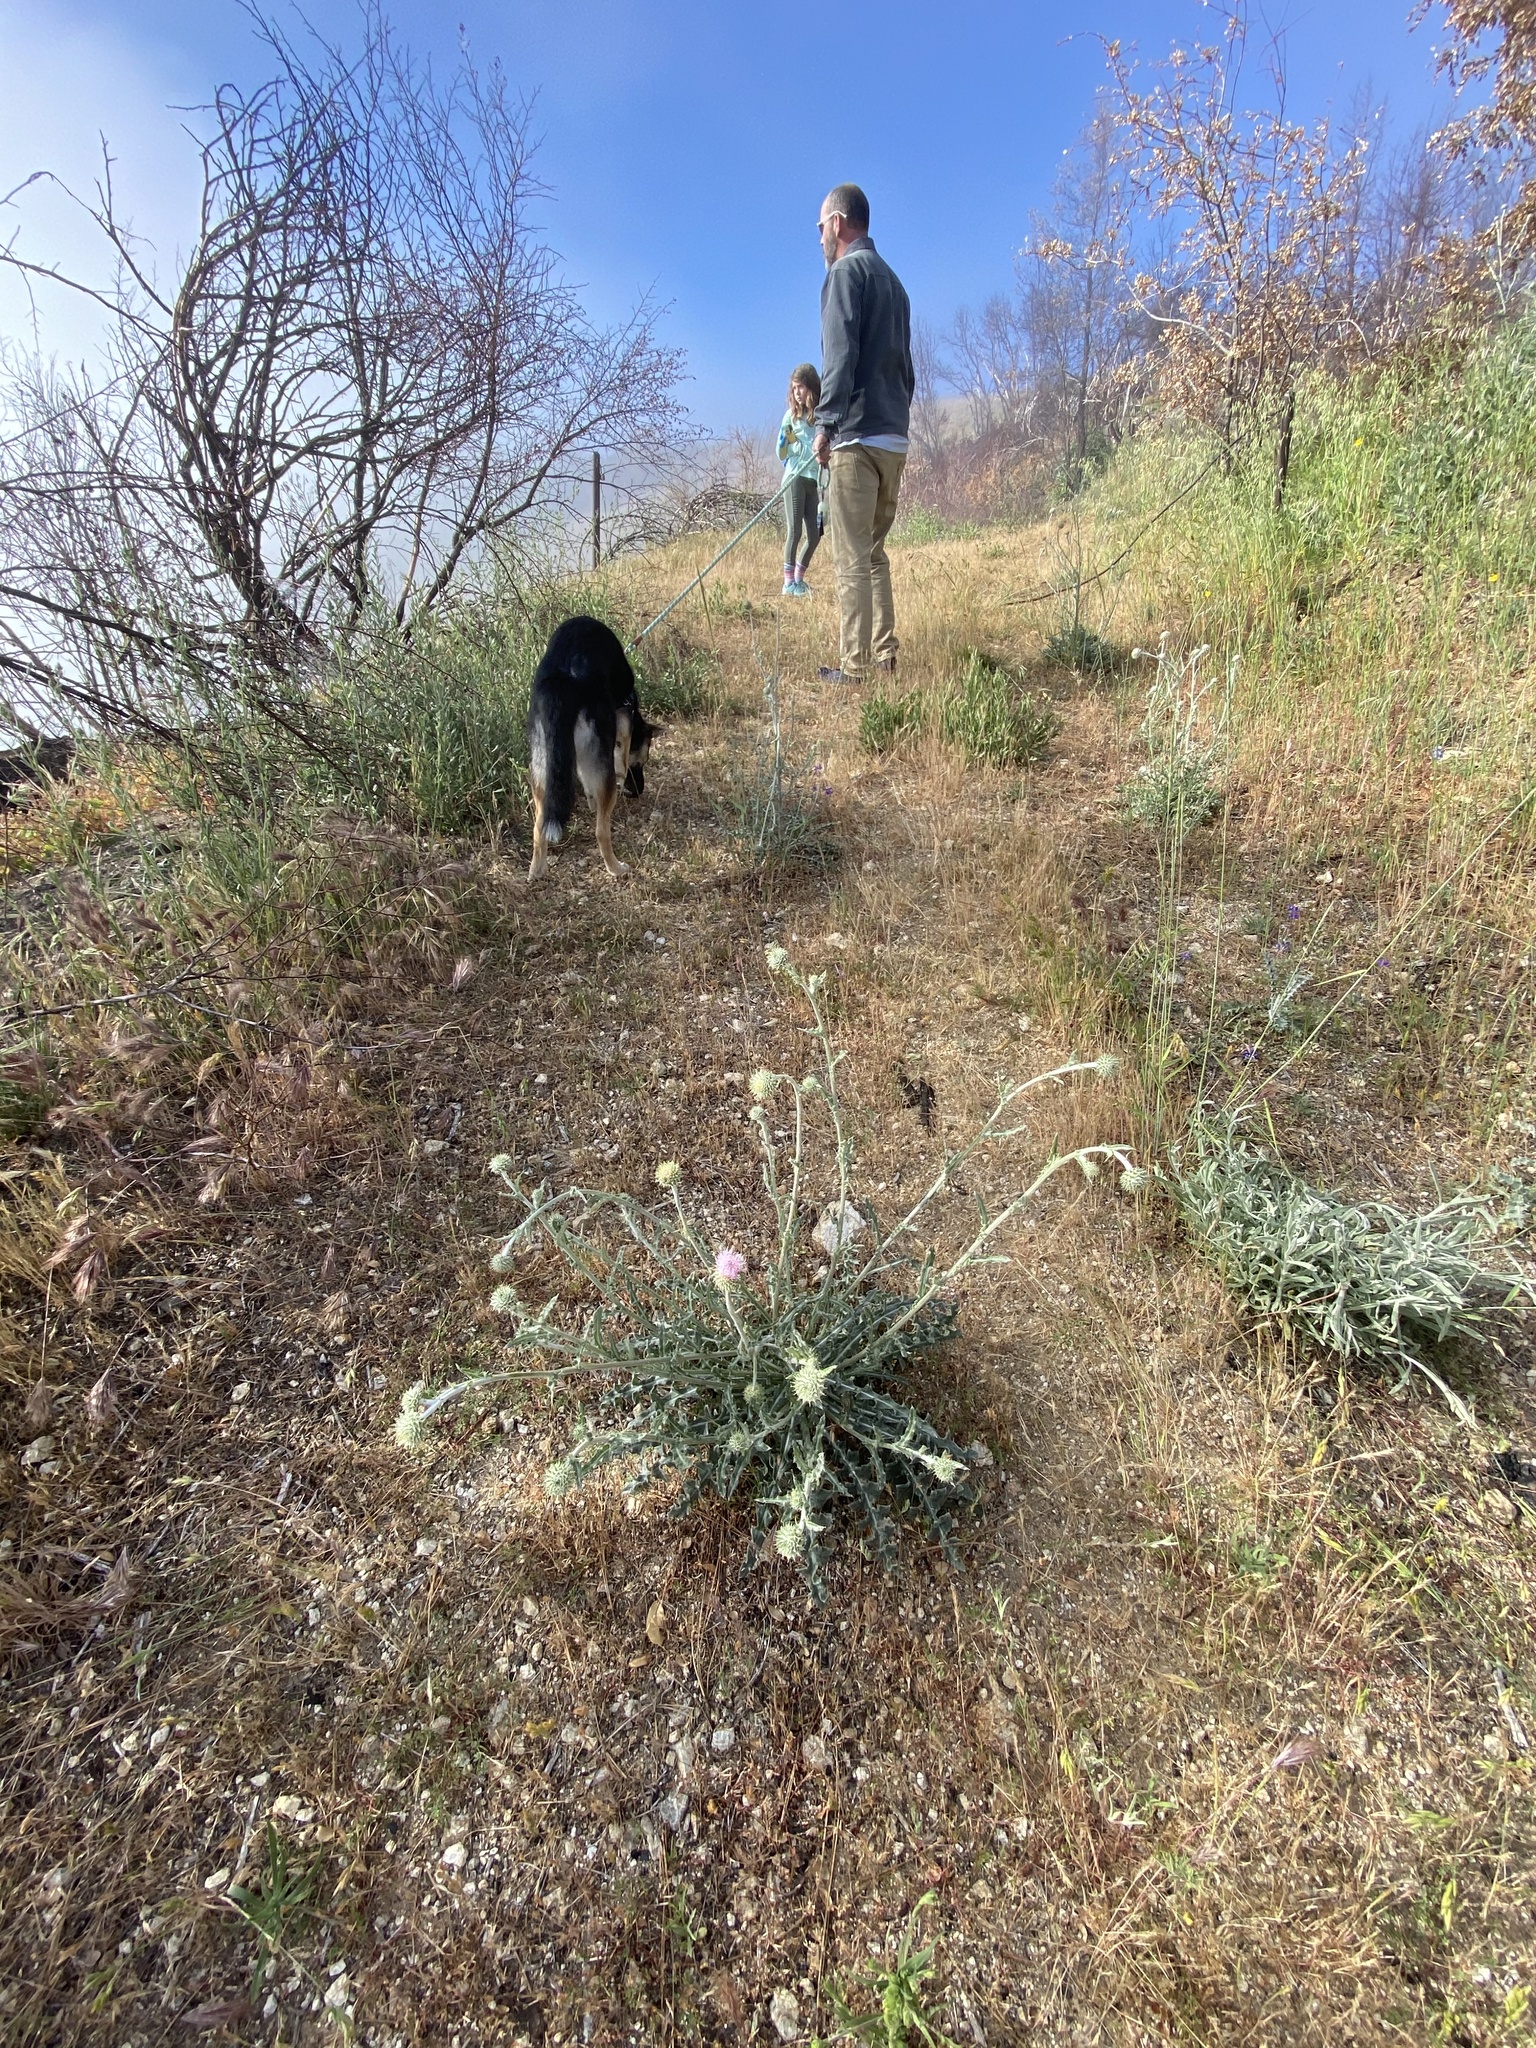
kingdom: Plantae
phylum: Tracheophyta
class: Magnoliopsida
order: Asterales
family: Asteraceae
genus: Cirsium
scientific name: Cirsium occidentale
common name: Western thistle
